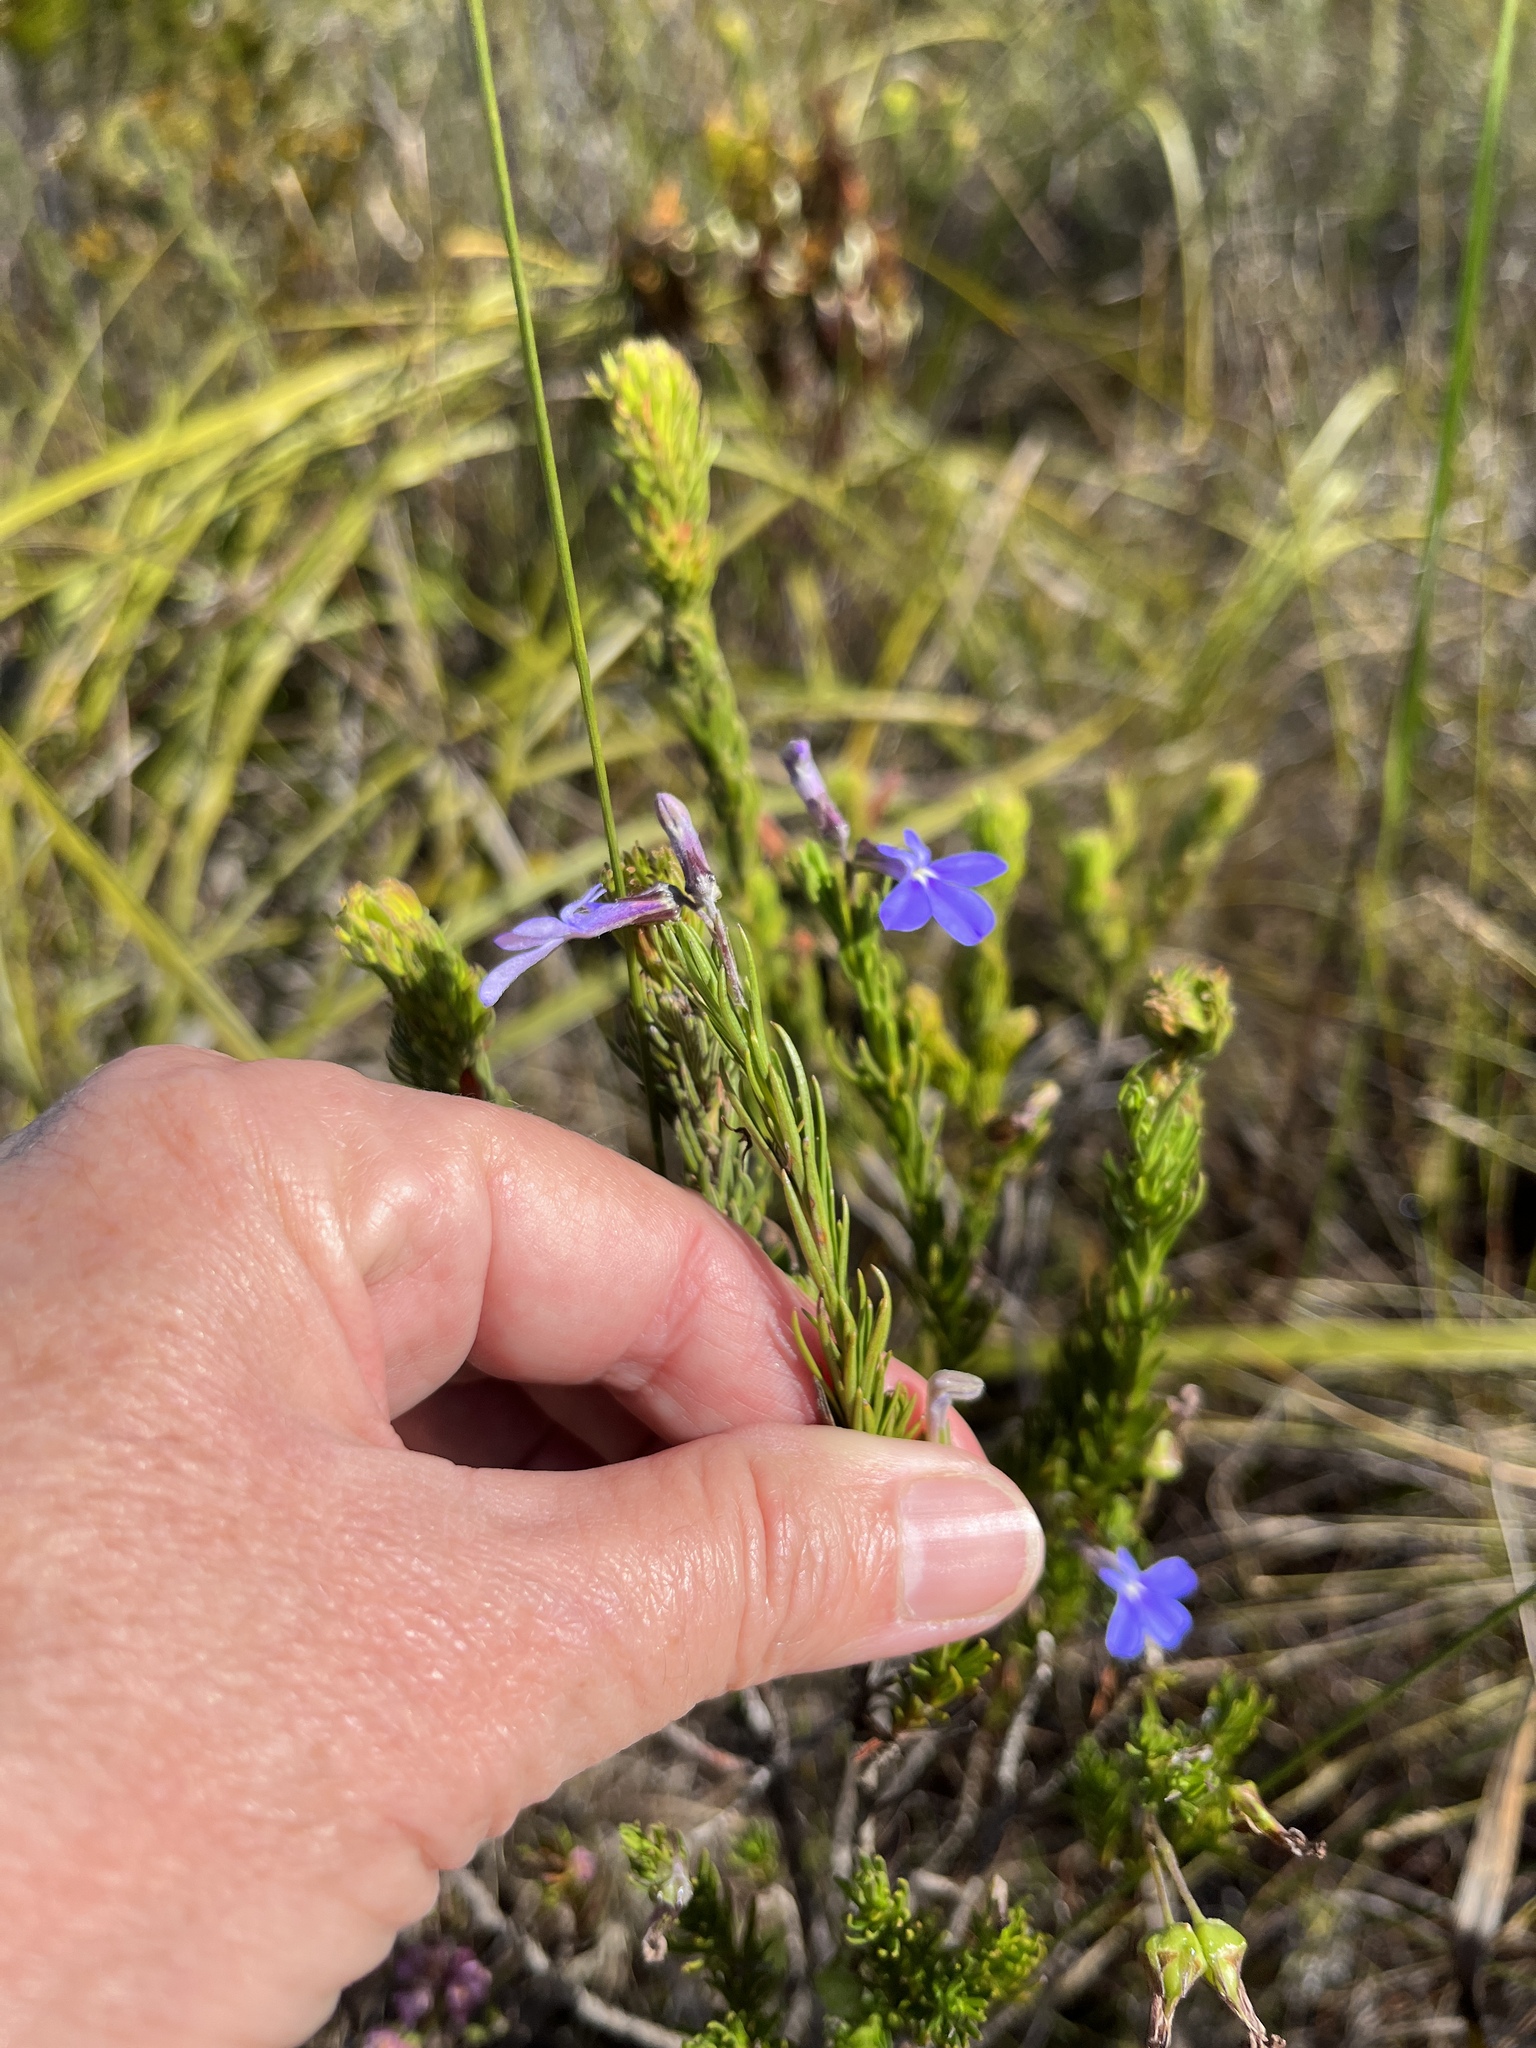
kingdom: Plantae
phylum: Tracheophyta
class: Magnoliopsida
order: Asterales
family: Campanulaceae
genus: Lobelia
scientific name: Lobelia pinifolia
